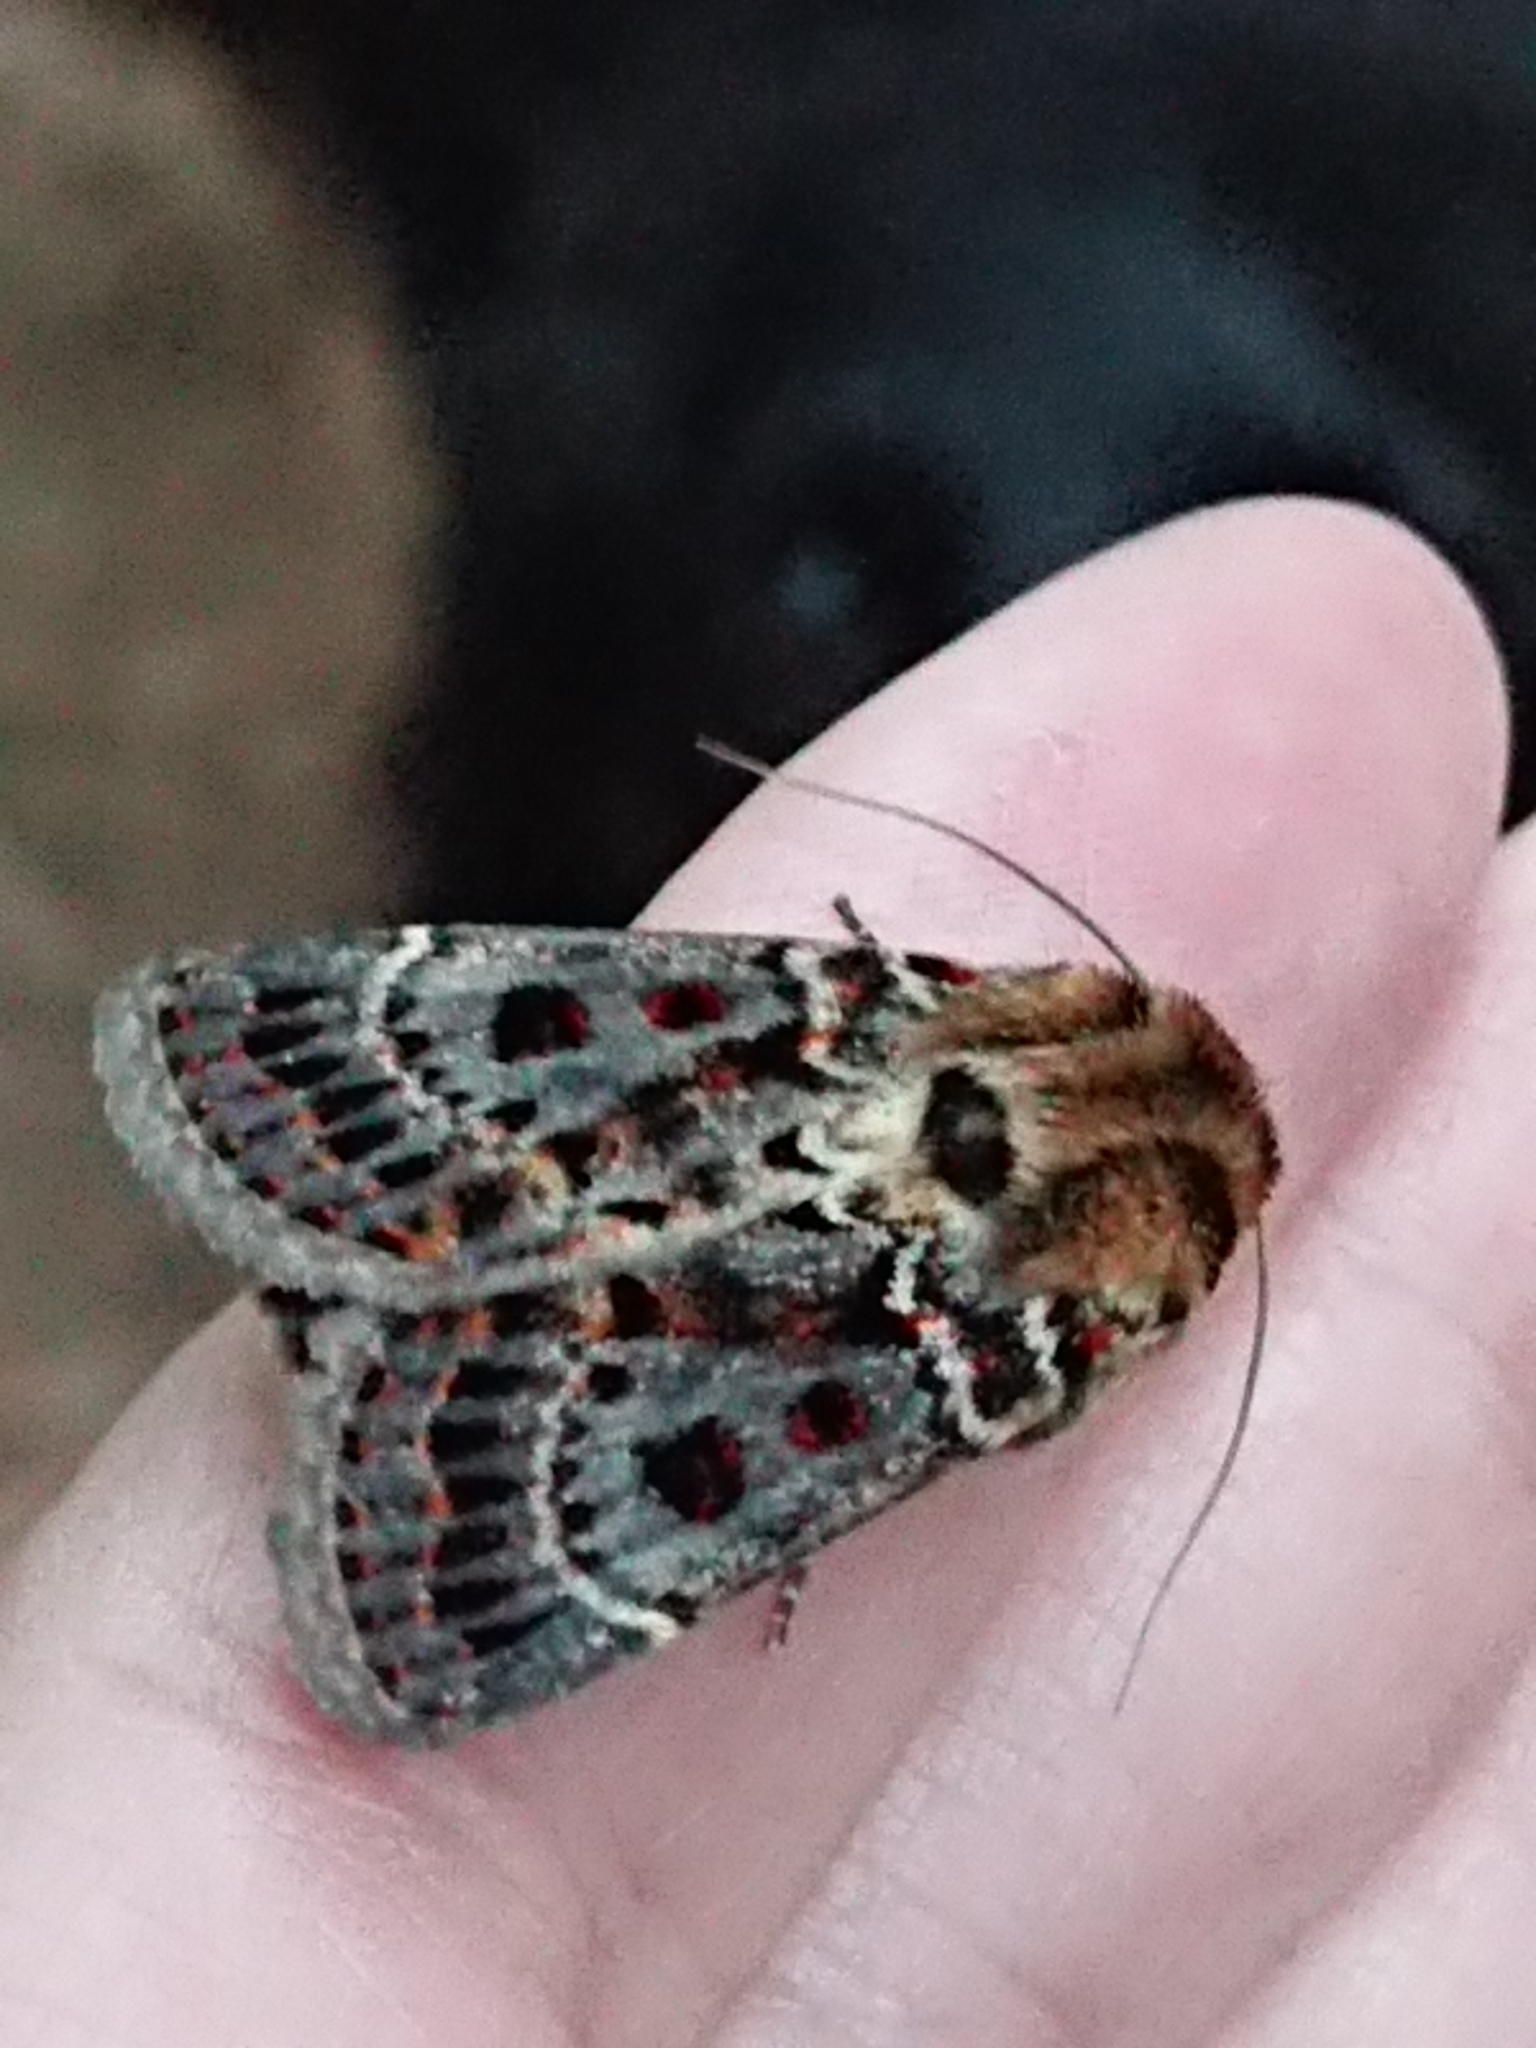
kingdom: Animalia
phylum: Arthropoda
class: Insecta
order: Lepidoptera
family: Noctuidae
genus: Proteuxoa
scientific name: Proteuxoa sanguinipuncta
